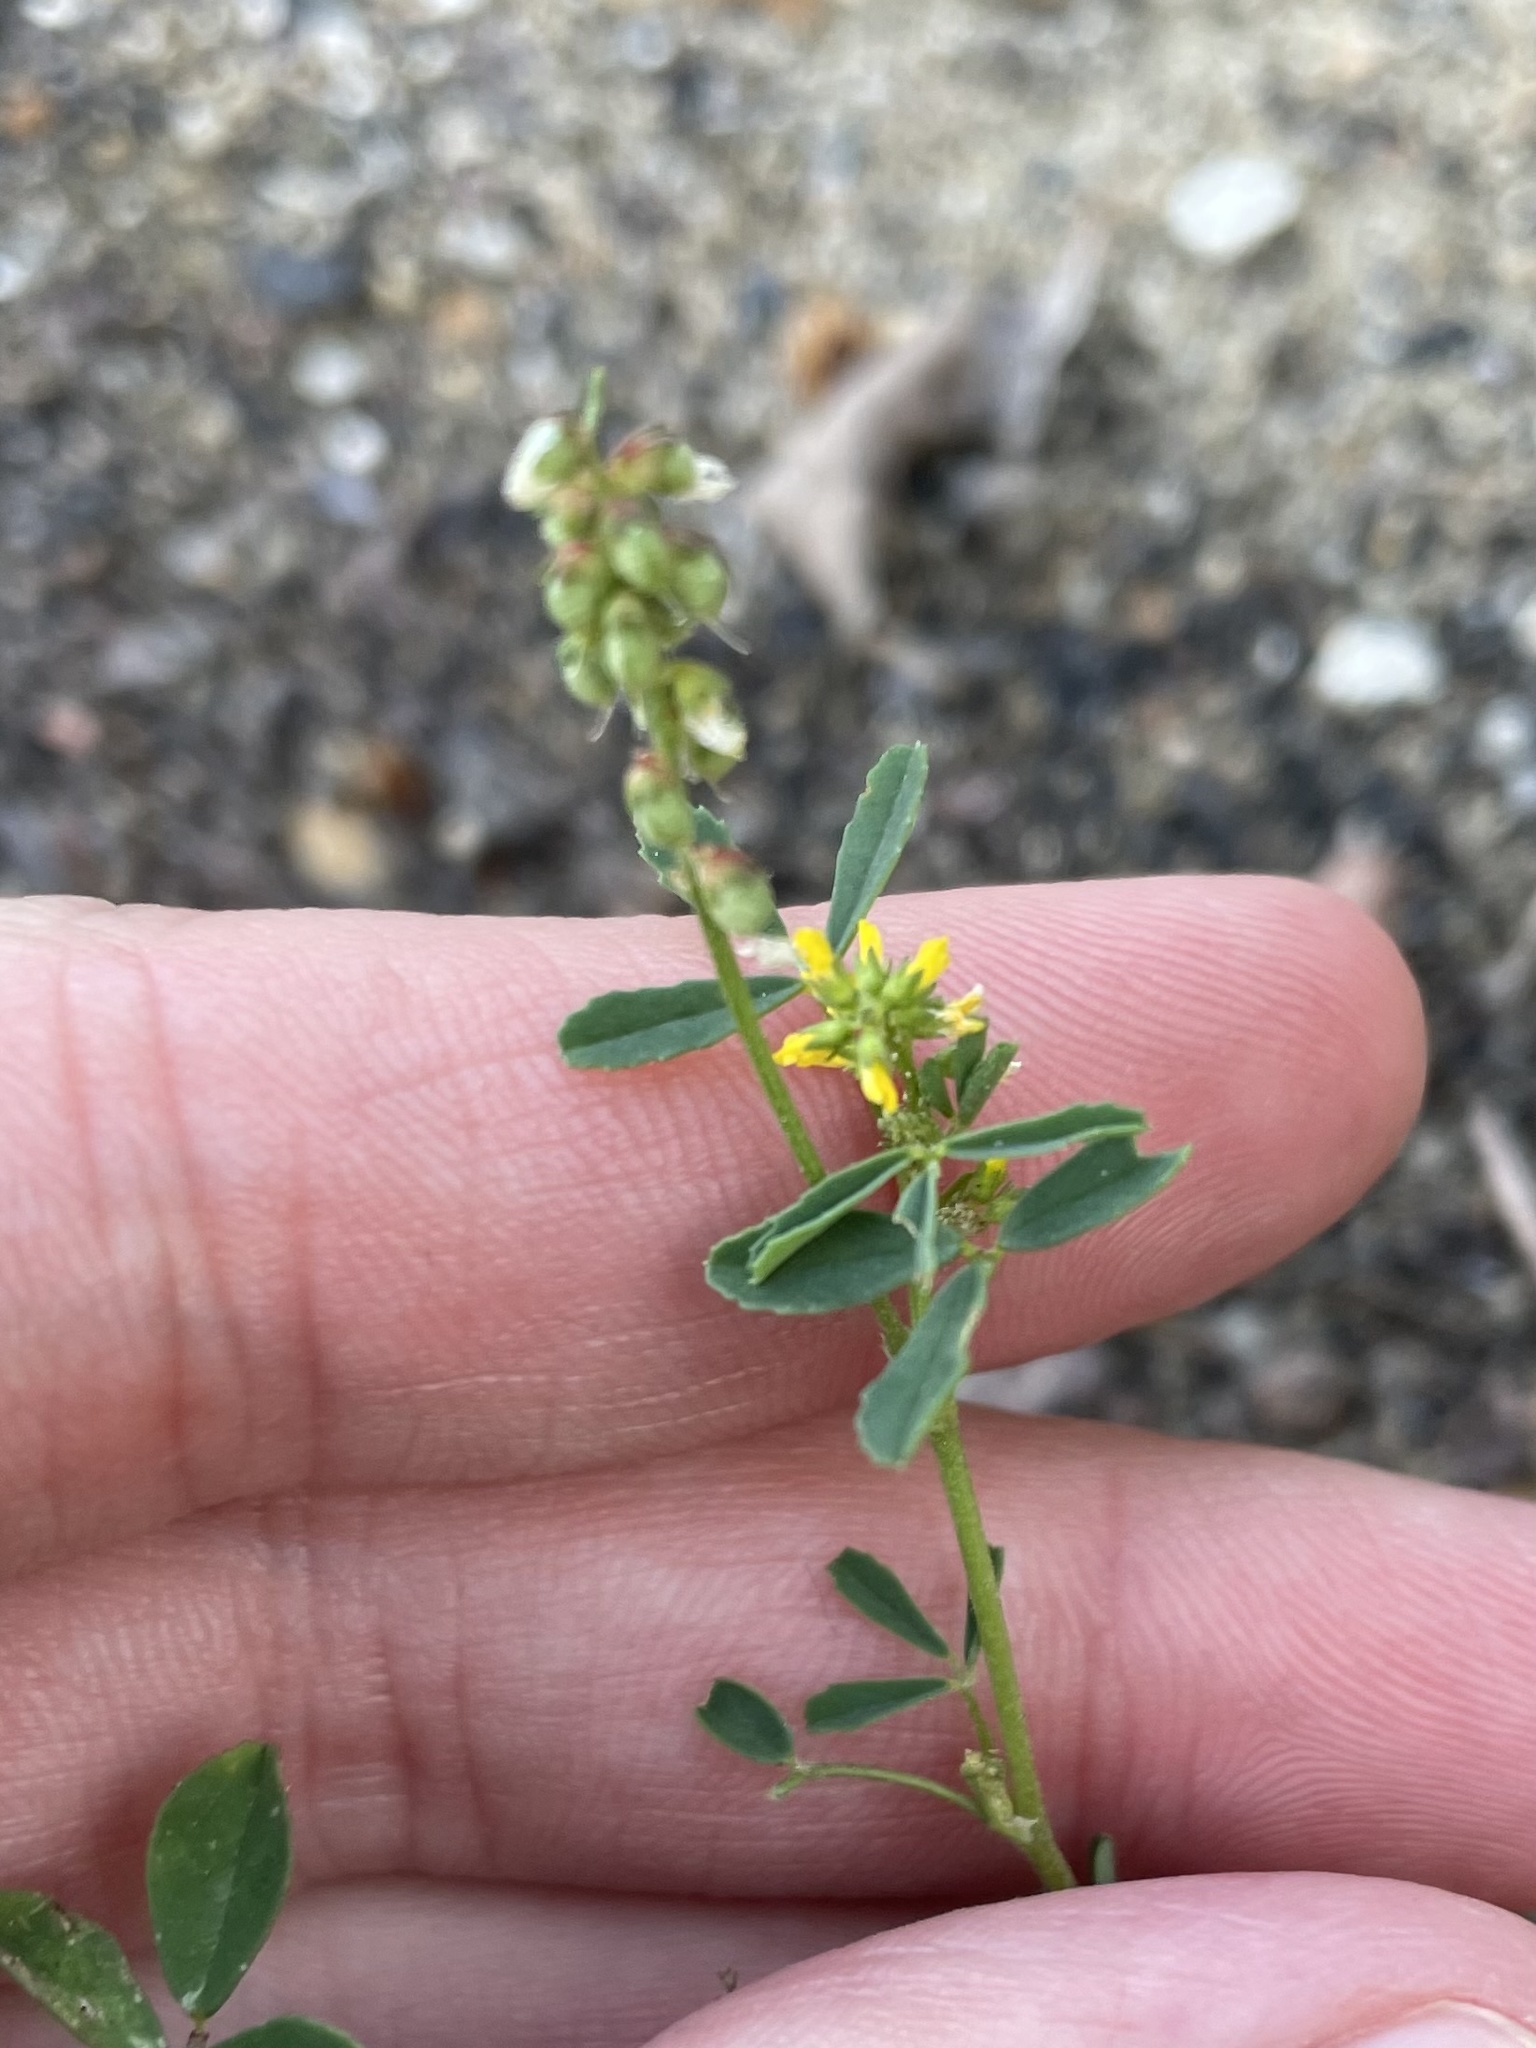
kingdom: Plantae
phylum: Tracheophyta
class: Magnoliopsida
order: Fabales
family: Fabaceae
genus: Melilotus
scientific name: Melilotus indicus
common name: Small melilot
